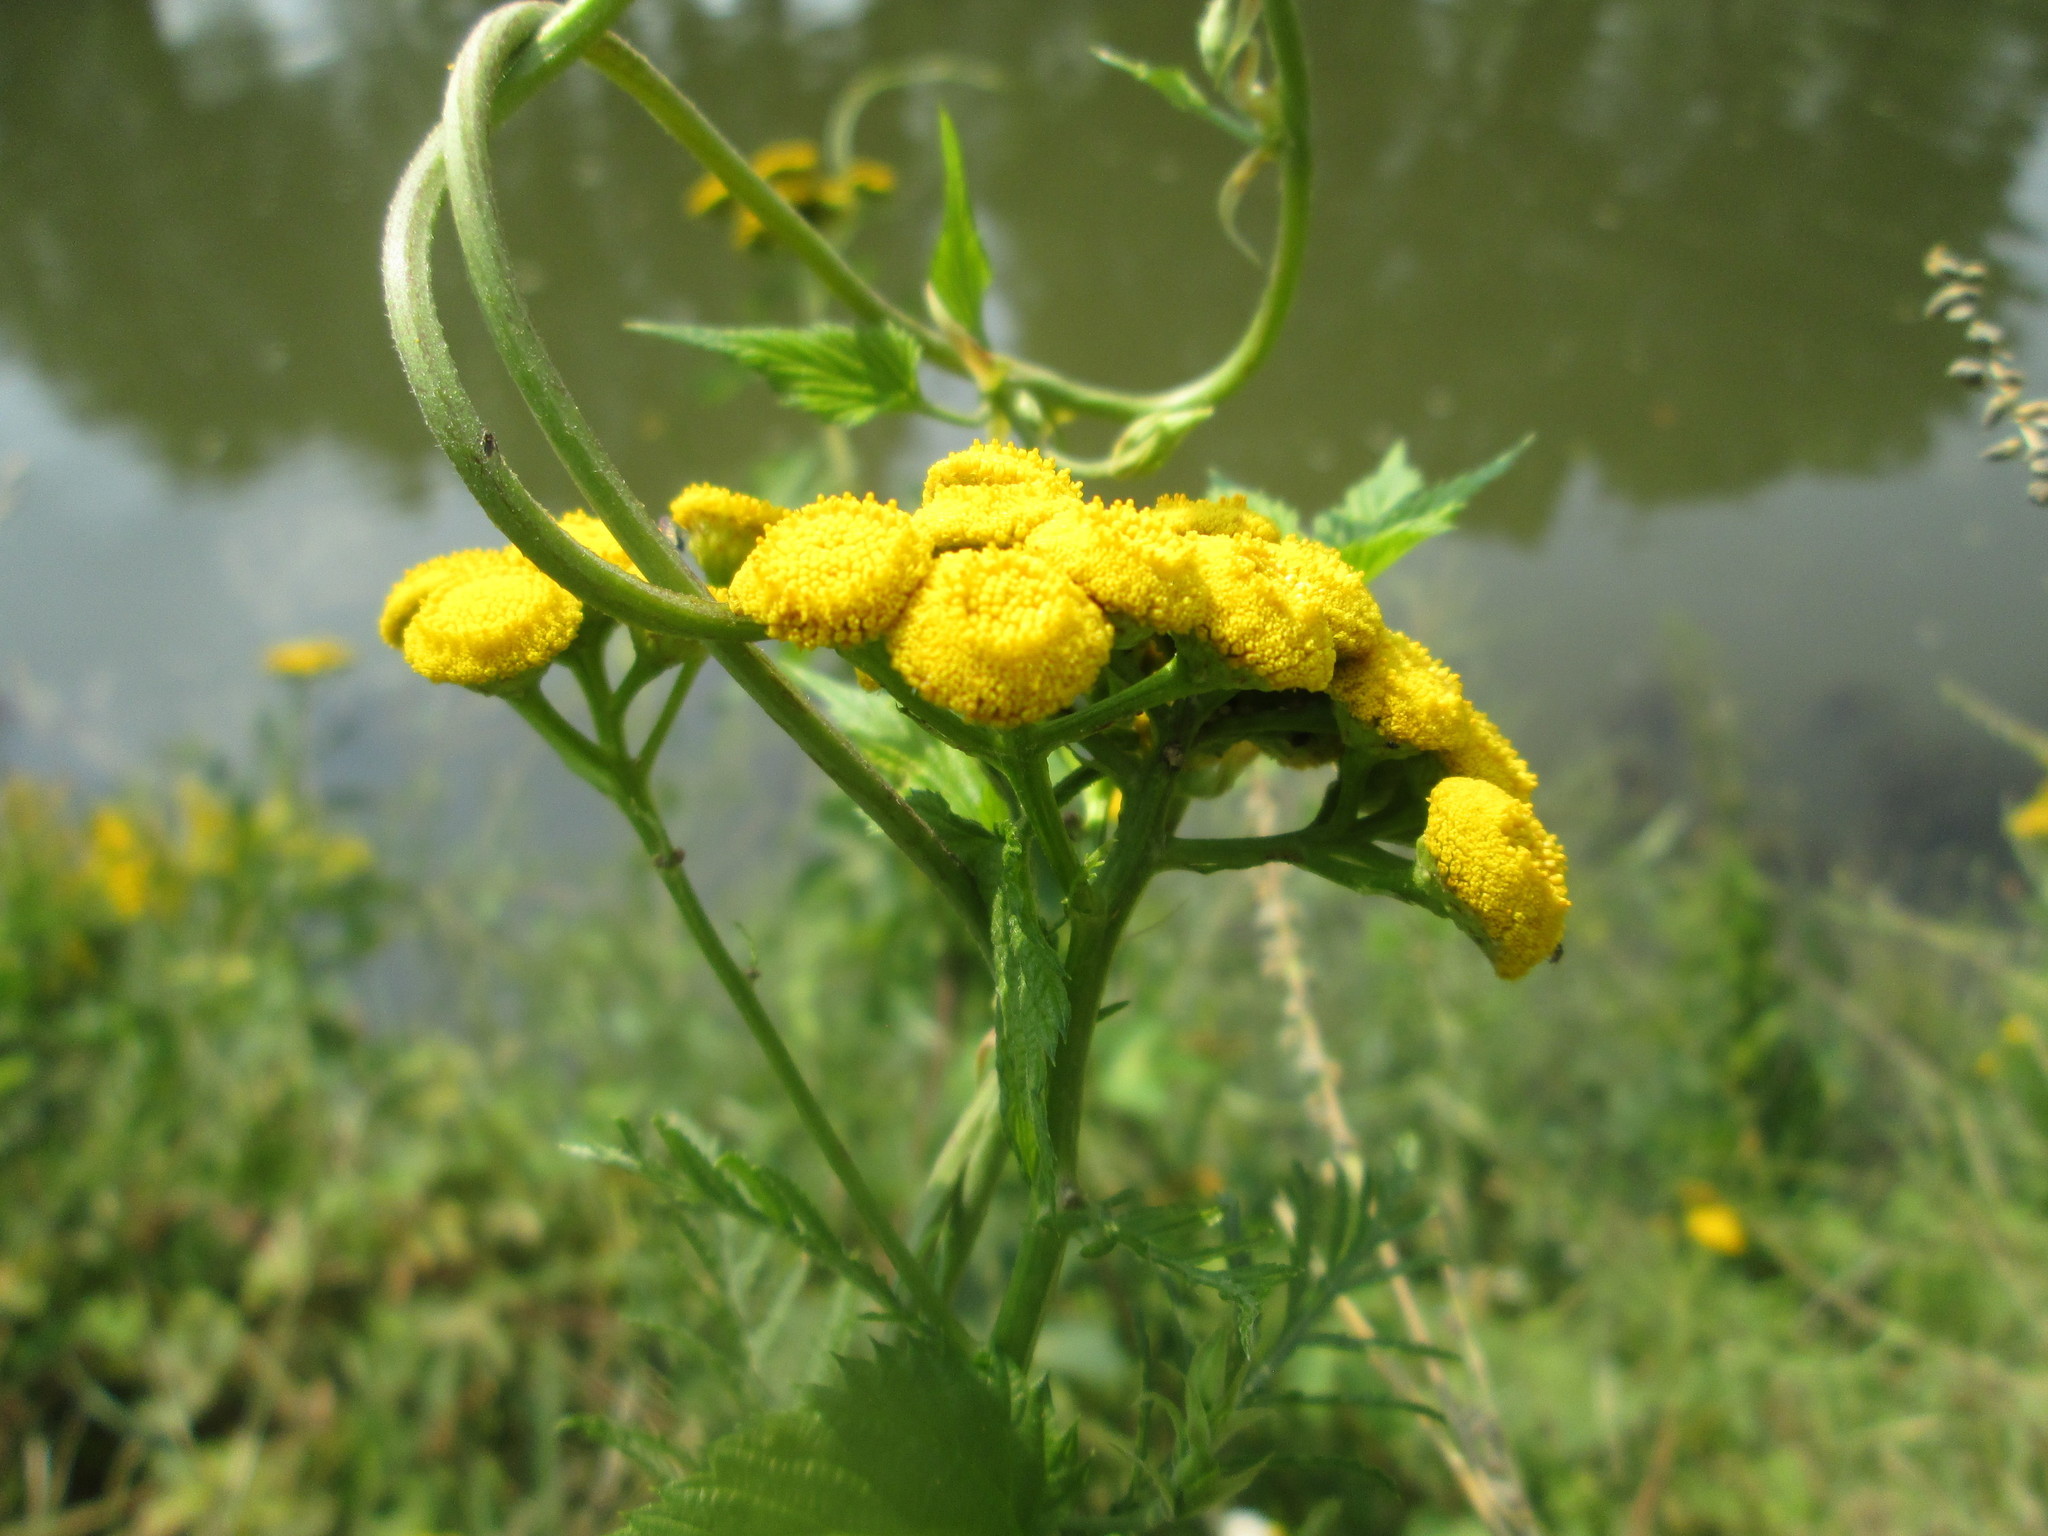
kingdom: Plantae
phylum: Tracheophyta
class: Magnoliopsida
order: Asterales
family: Asteraceae
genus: Tanacetum
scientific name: Tanacetum vulgare
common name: Common tansy
